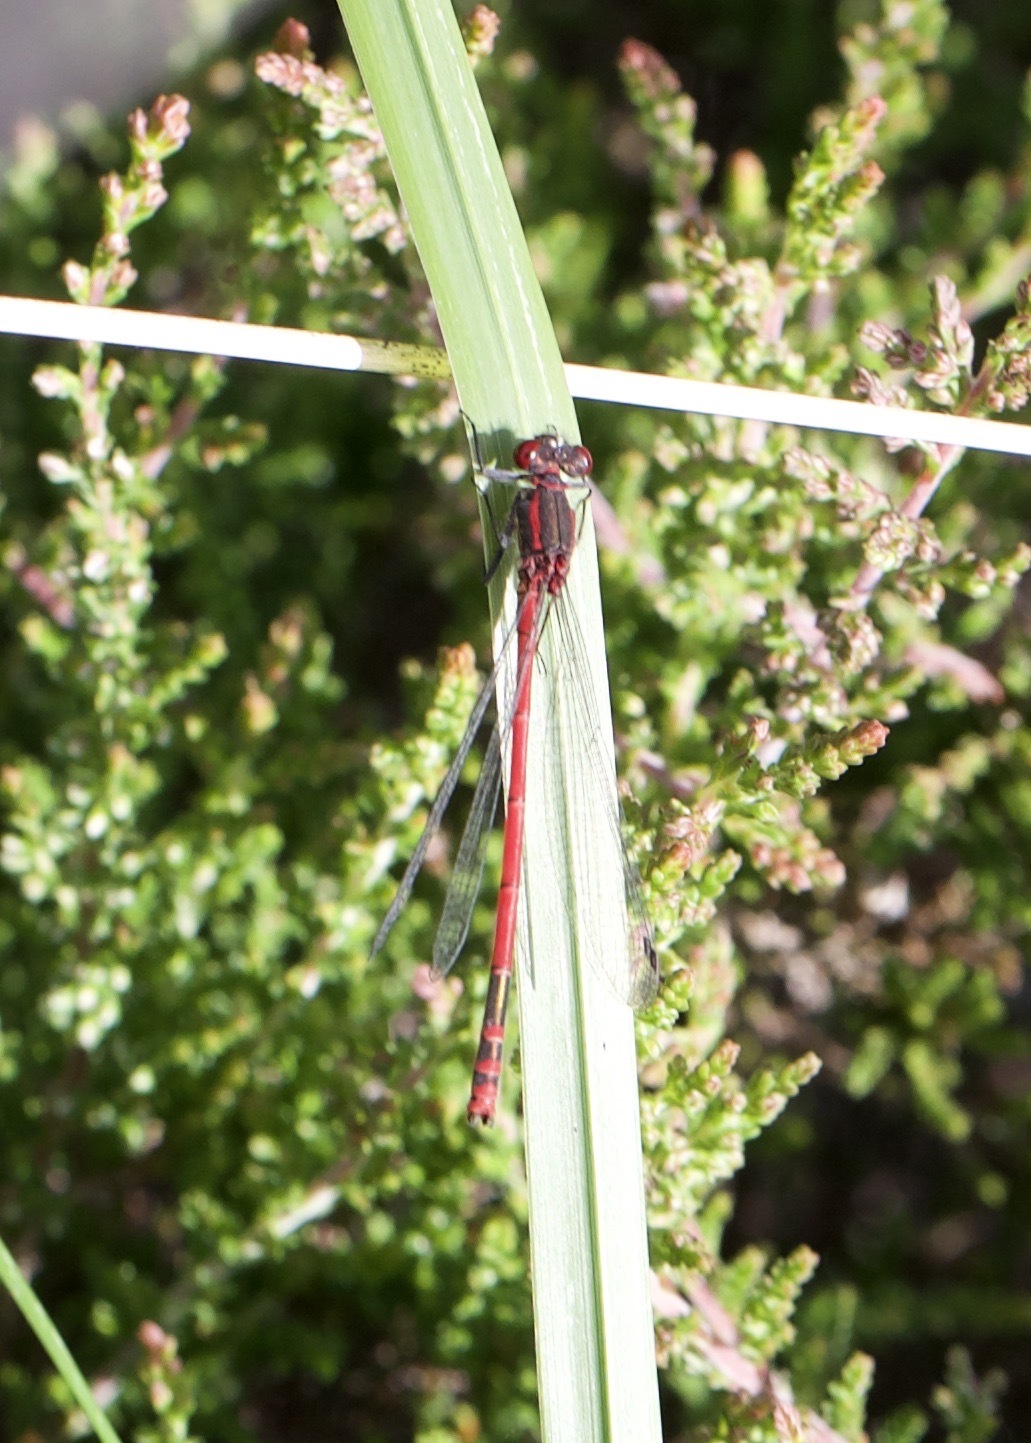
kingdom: Animalia
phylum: Arthropoda
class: Insecta
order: Odonata
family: Coenagrionidae
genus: Pyrrhosoma
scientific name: Pyrrhosoma nymphula
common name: Large red damsel
